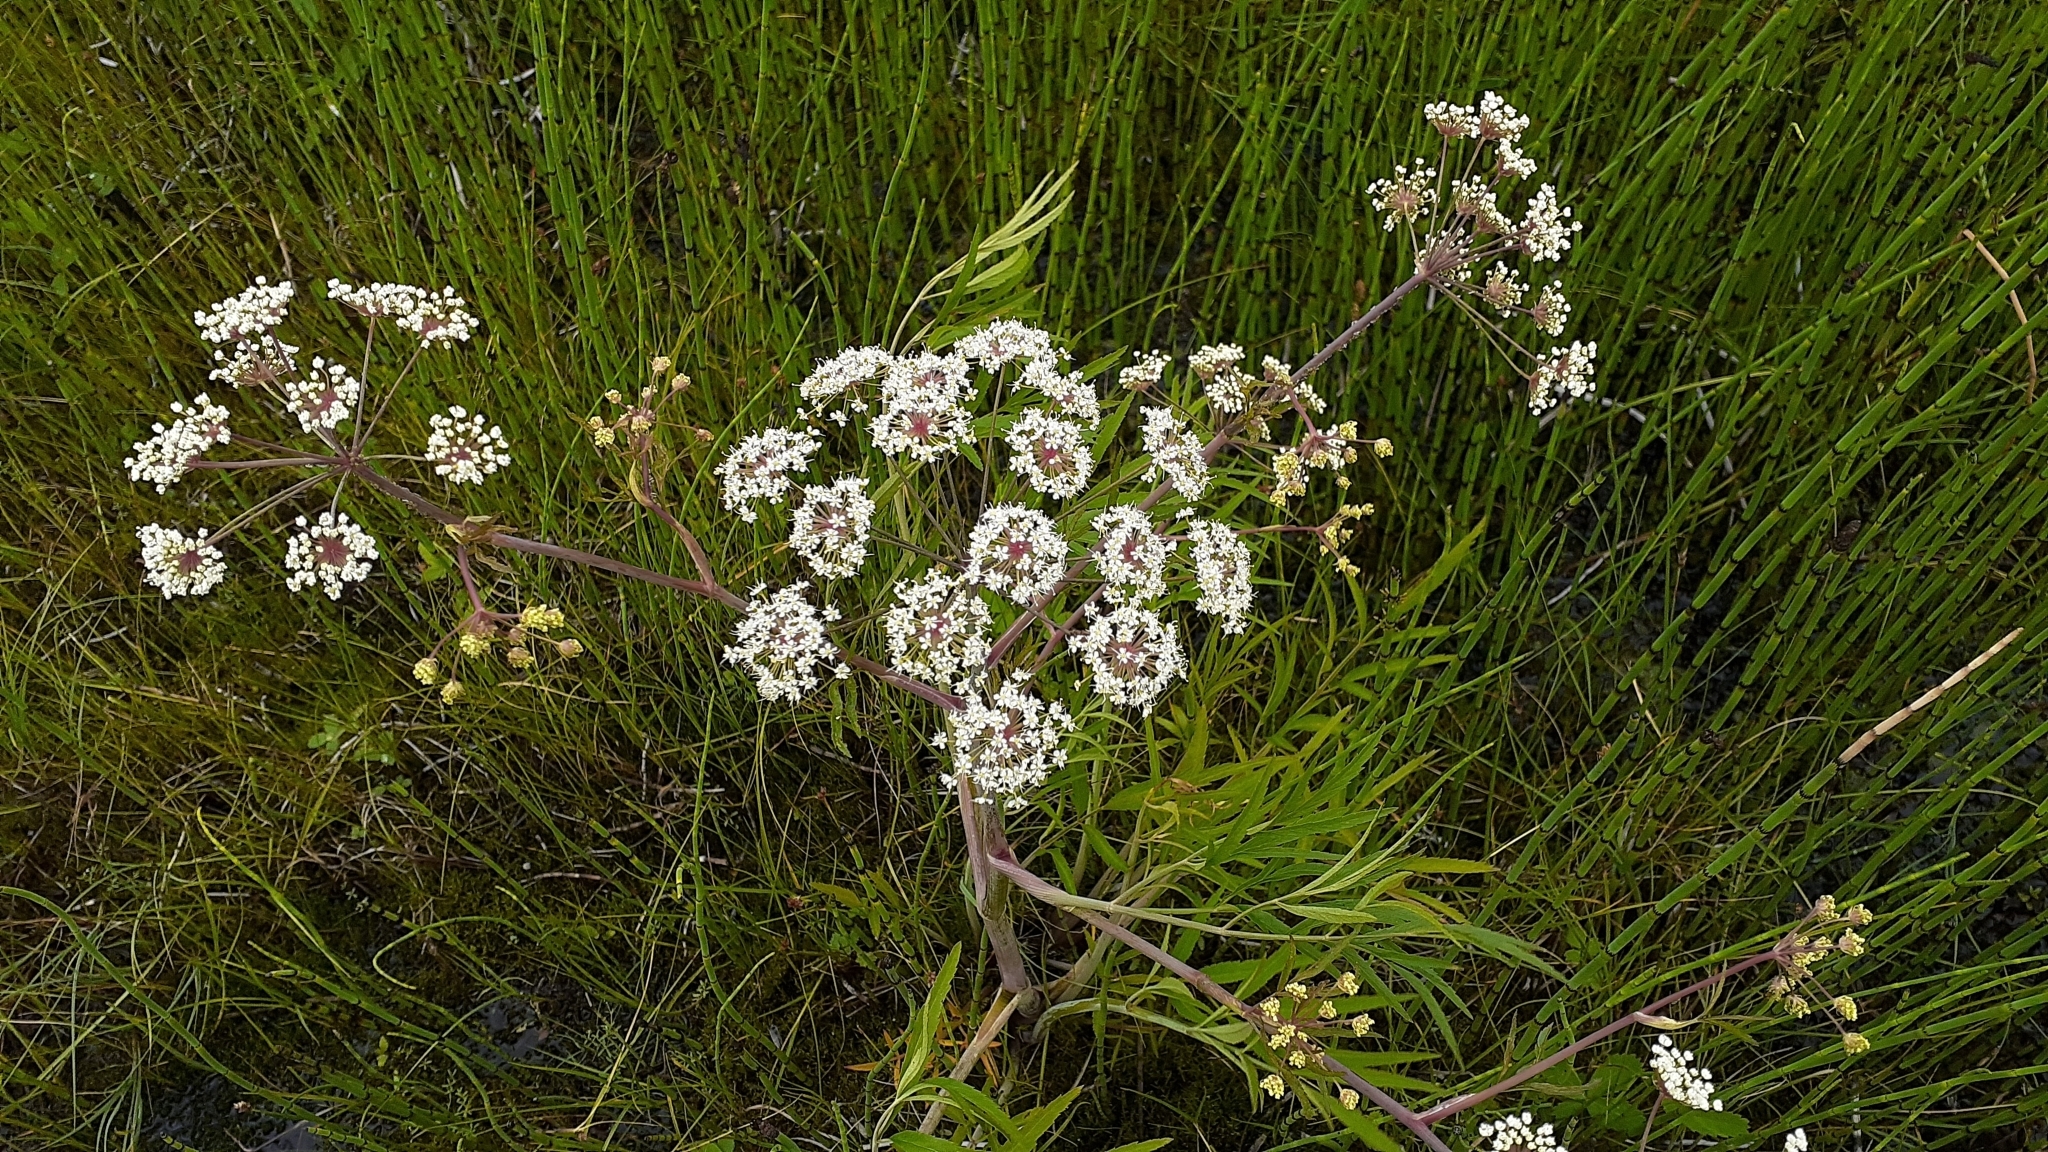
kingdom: Plantae
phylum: Tracheophyta
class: Magnoliopsida
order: Apiales
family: Apiaceae
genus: Cicuta
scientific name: Cicuta maculata
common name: Spotted cowbane
